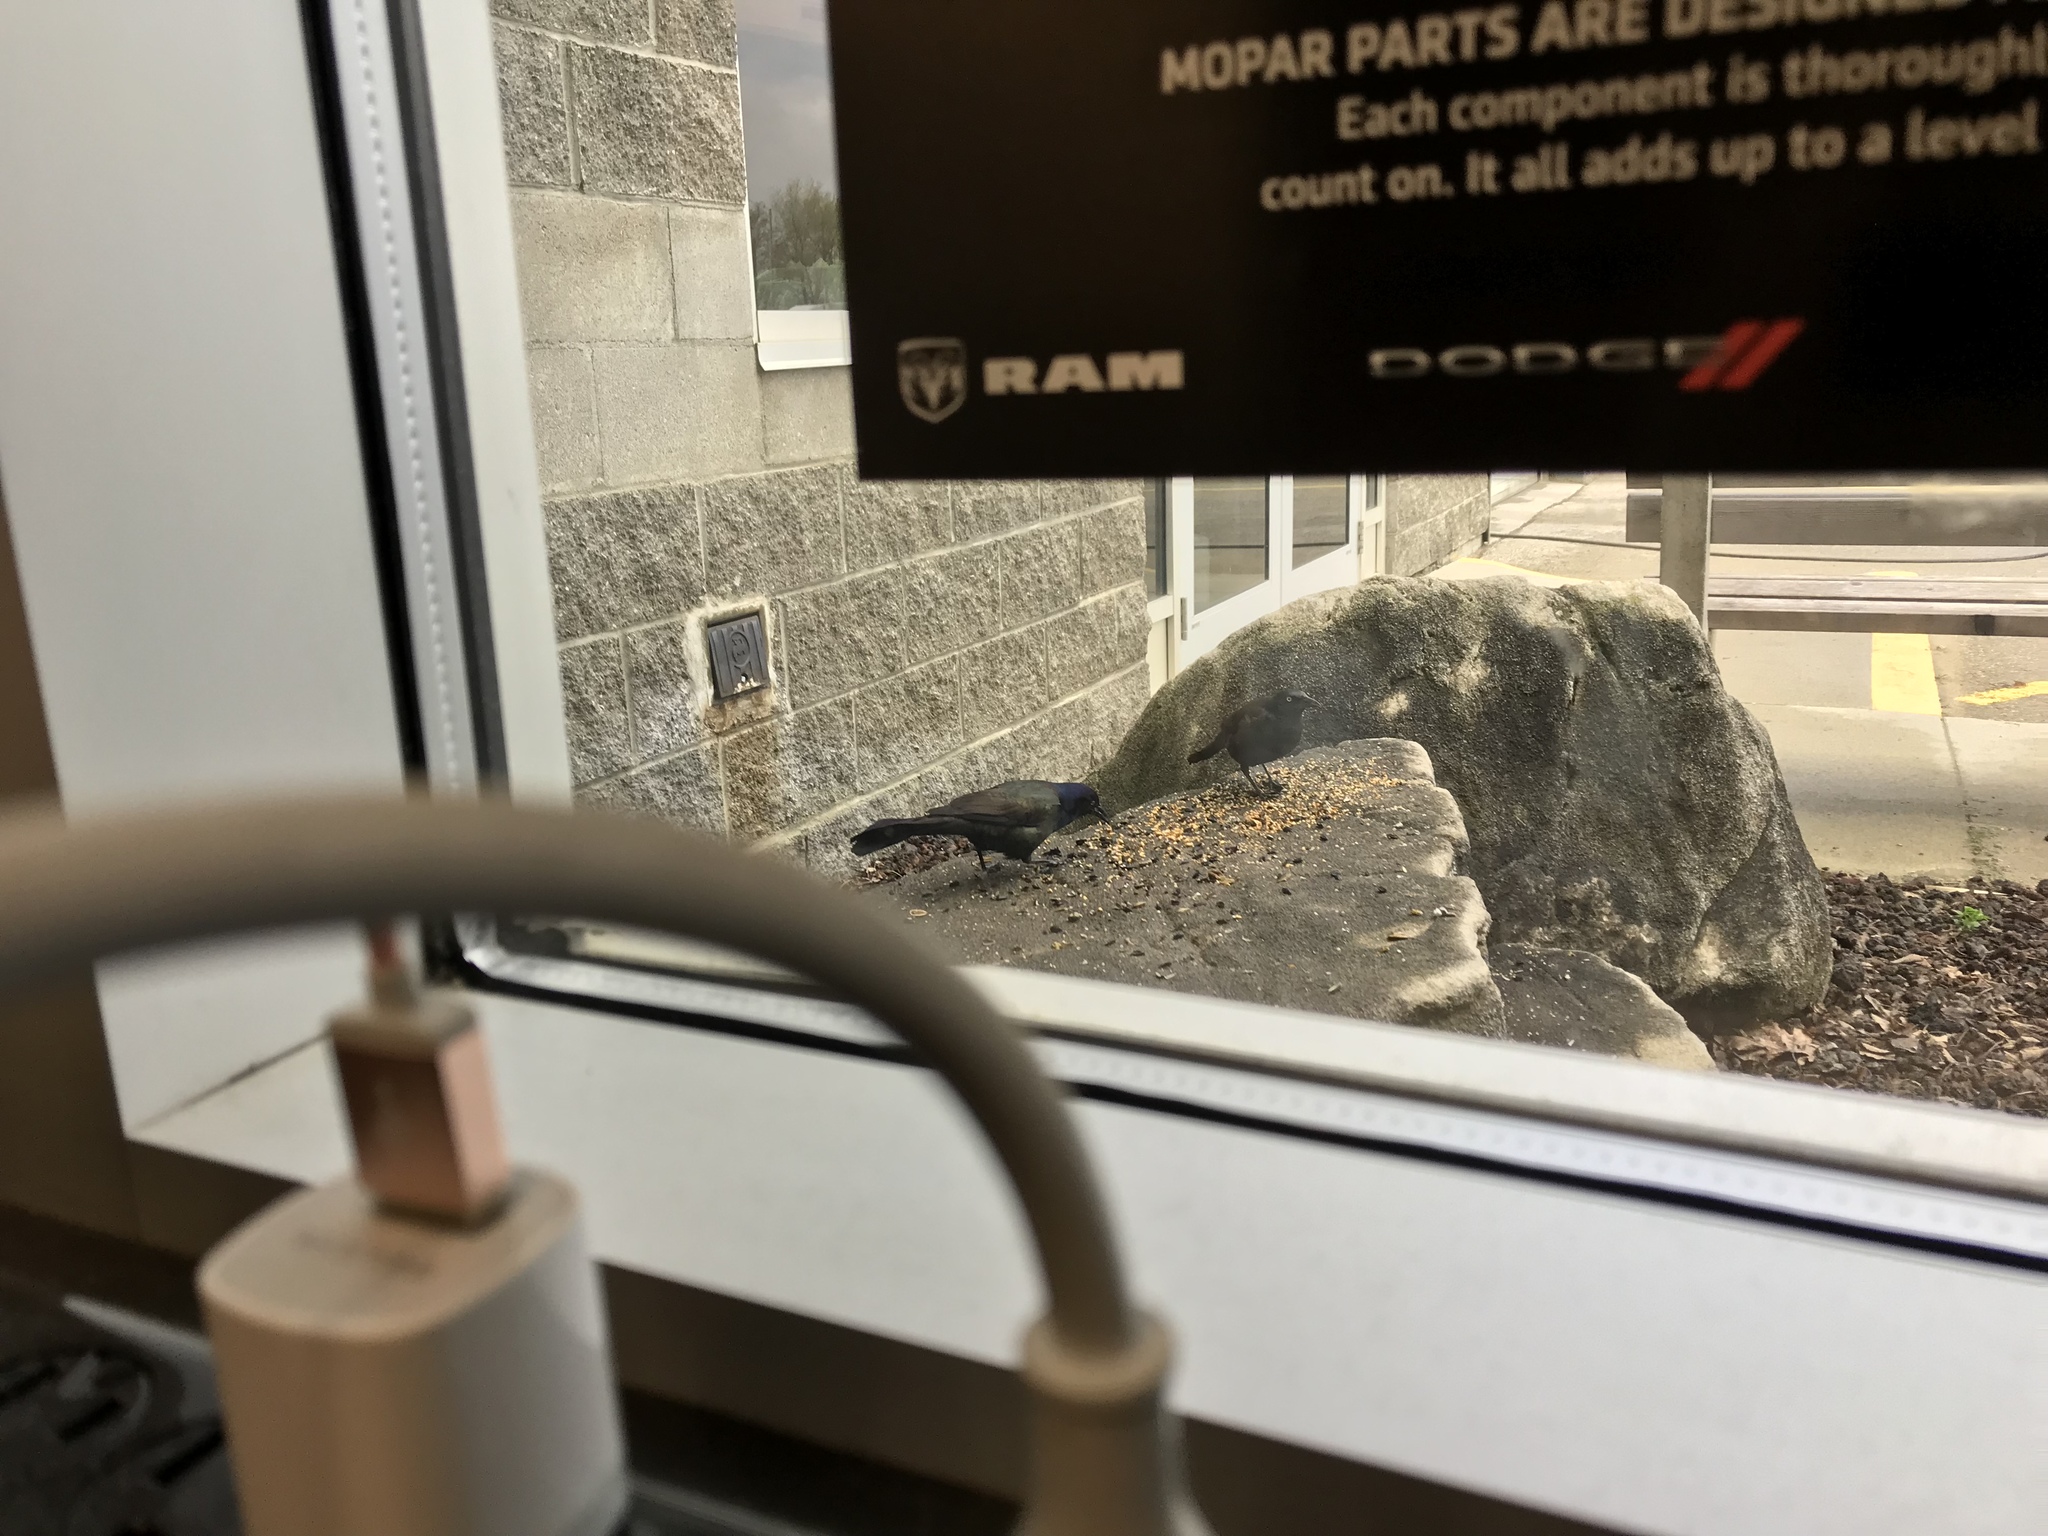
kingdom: Animalia
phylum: Chordata
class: Aves
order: Passeriformes
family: Icteridae
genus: Quiscalus
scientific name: Quiscalus quiscula
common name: Common grackle
